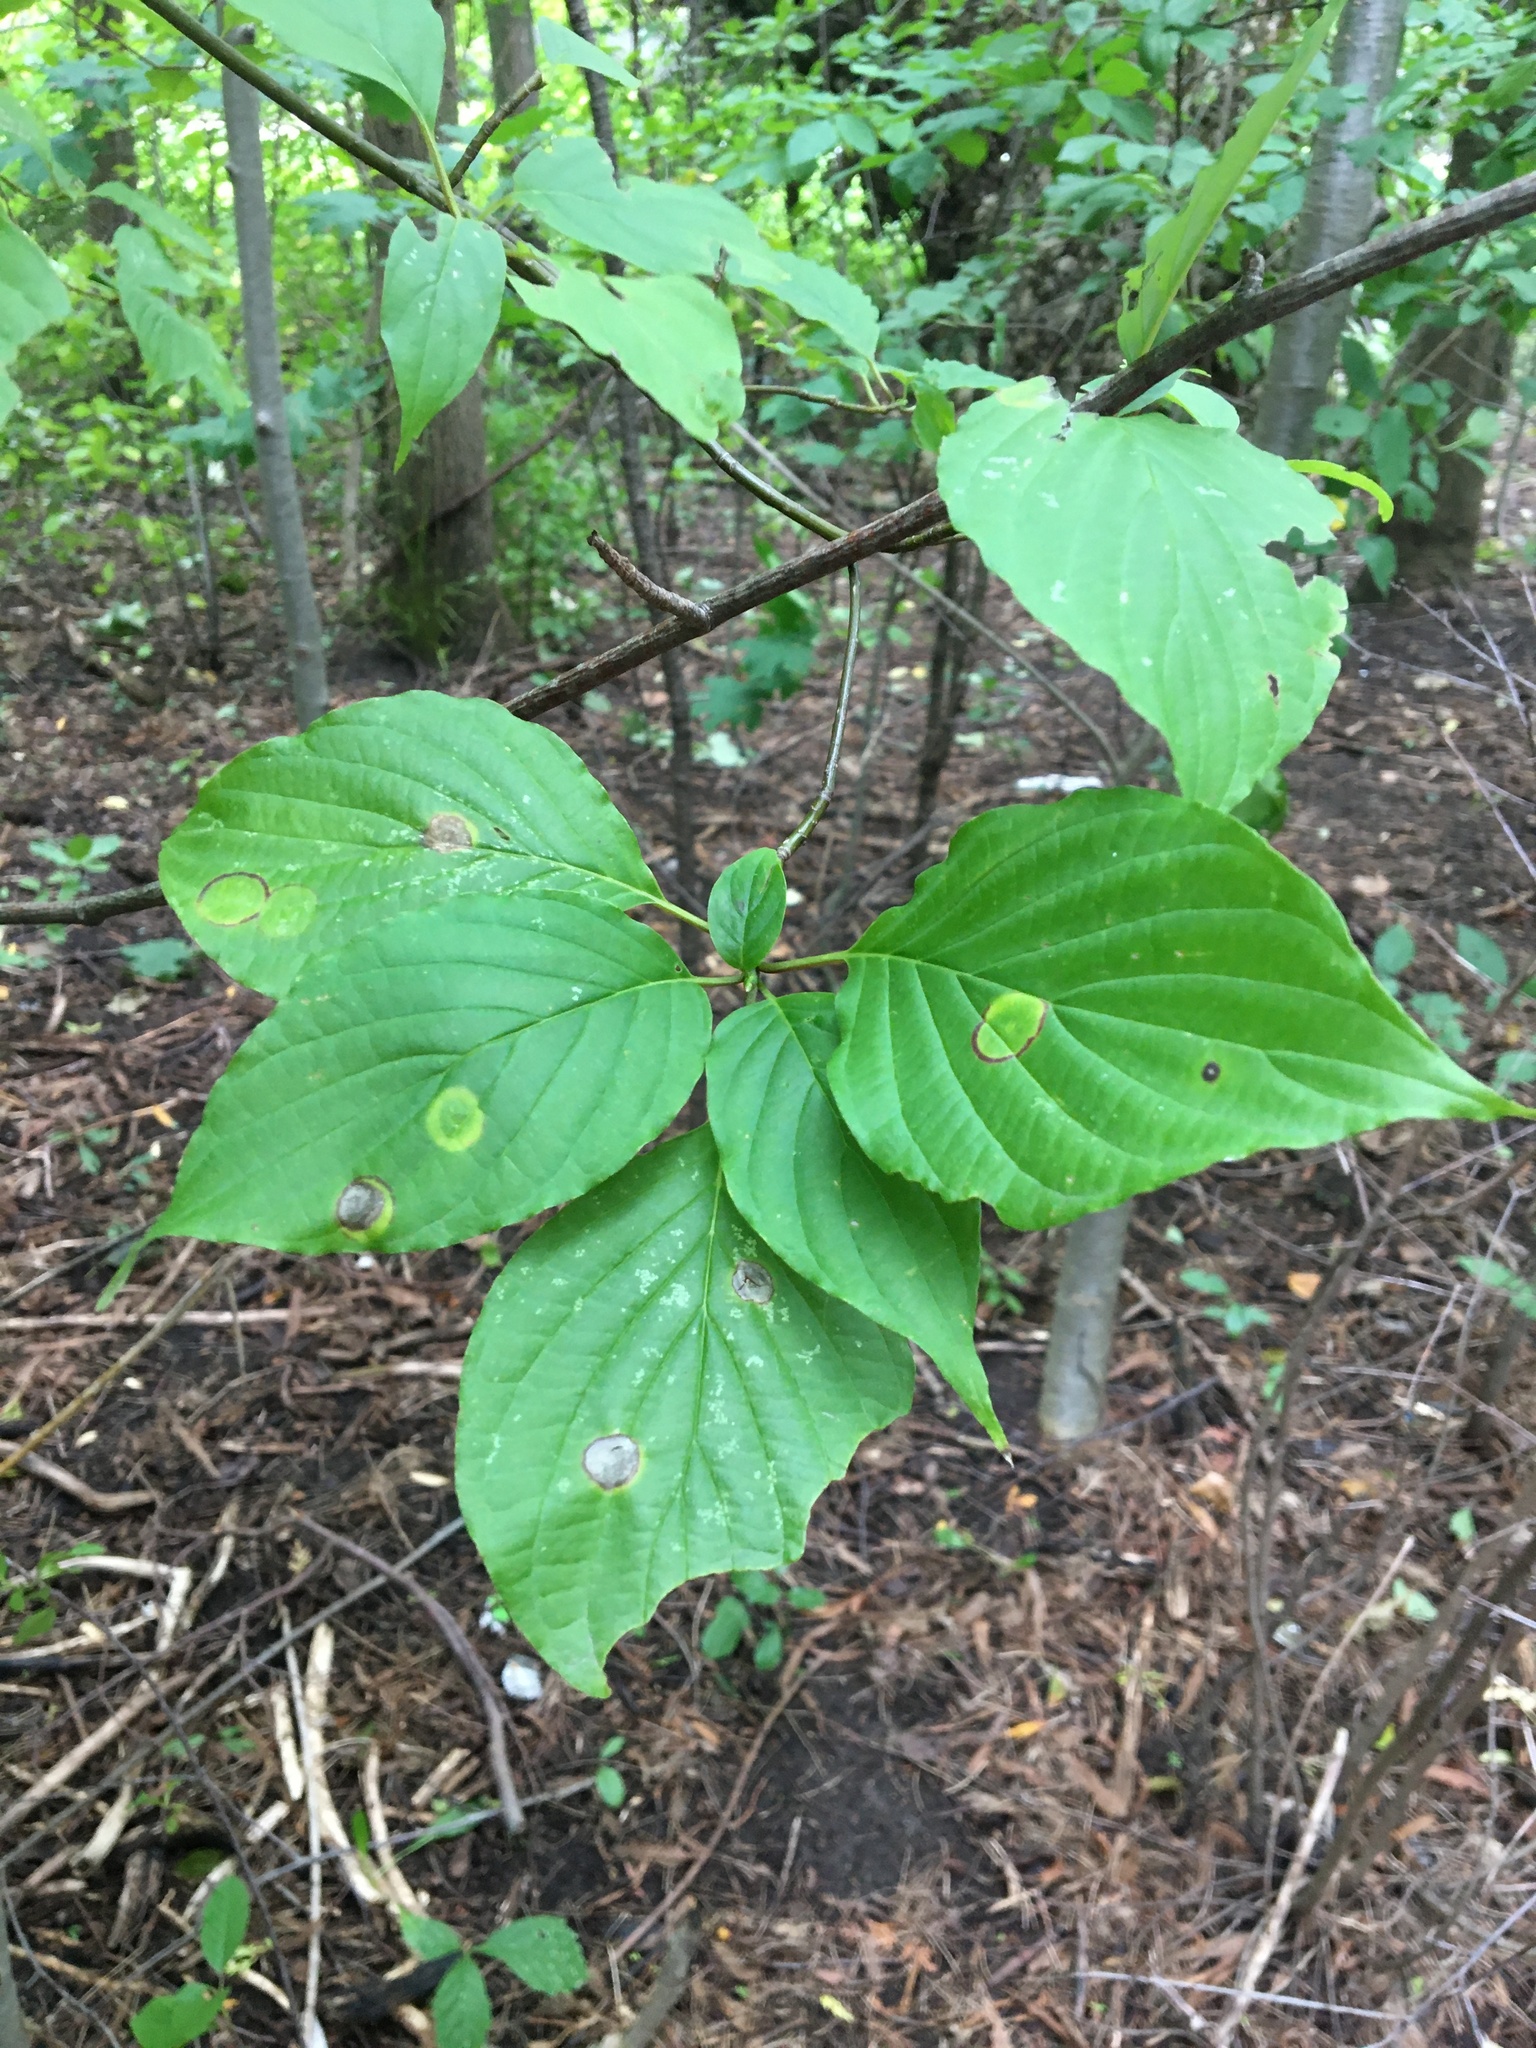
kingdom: Plantae
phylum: Tracheophyta
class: Magnoliopsida
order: Cornales
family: Cornaceae
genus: Cornus
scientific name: Cornus alternifolia
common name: Pagoda dogwood
